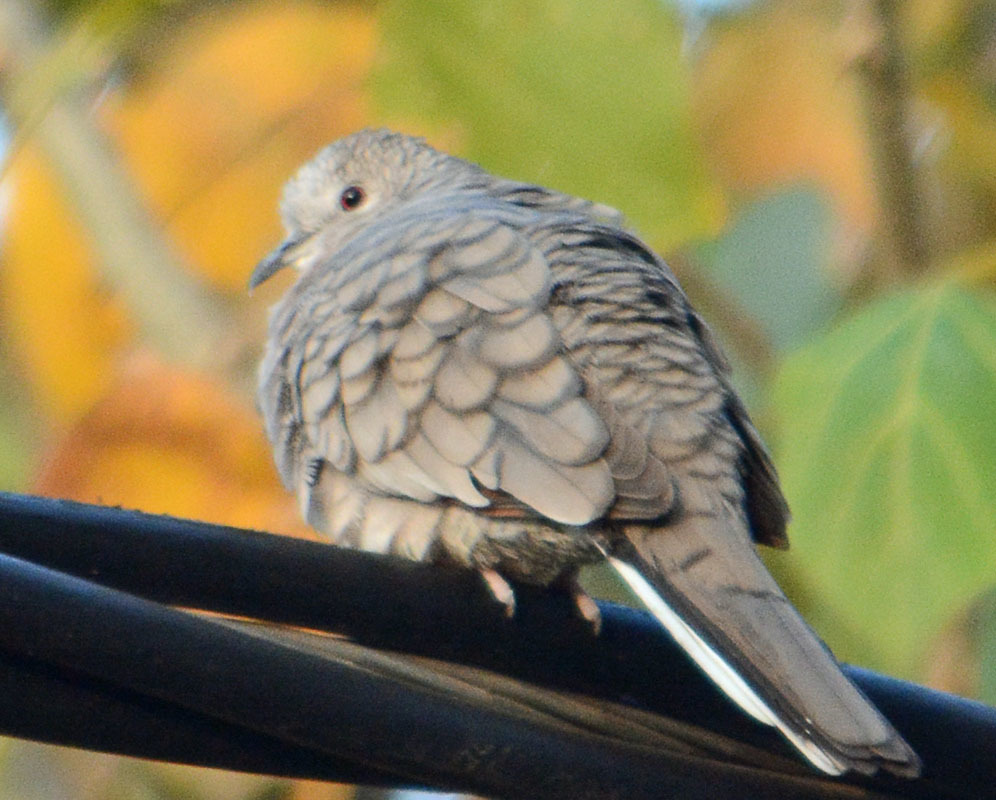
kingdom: Animalia
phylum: Chordata
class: Aves
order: Columbiformes
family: Columbidae
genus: Columbina
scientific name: Columbina inca
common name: Inca dove
